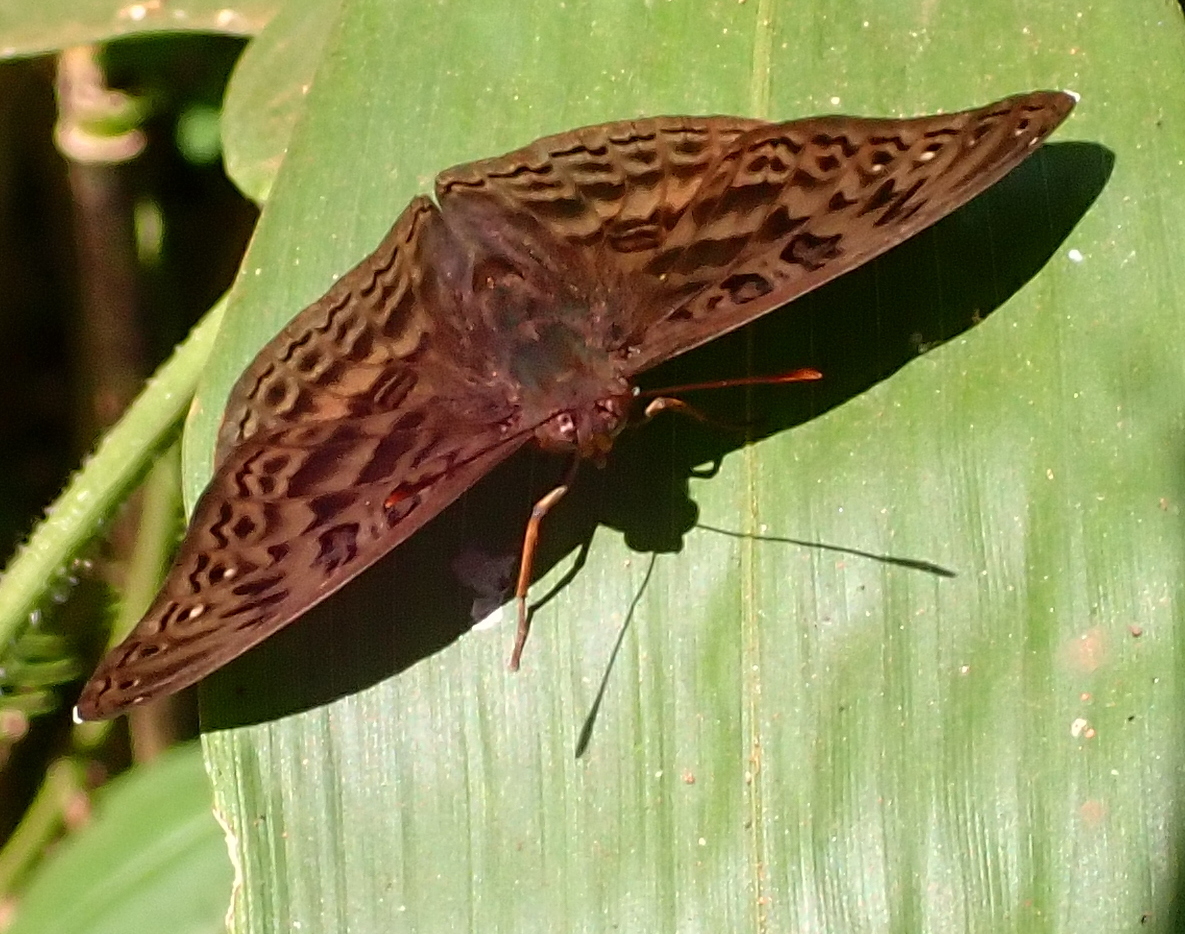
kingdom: Animalia
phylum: Arthropoda
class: Insecta
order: Lepidoptera
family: Nymphalidae
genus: Euryphura
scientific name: Euryphura chalcis
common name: Common commander
